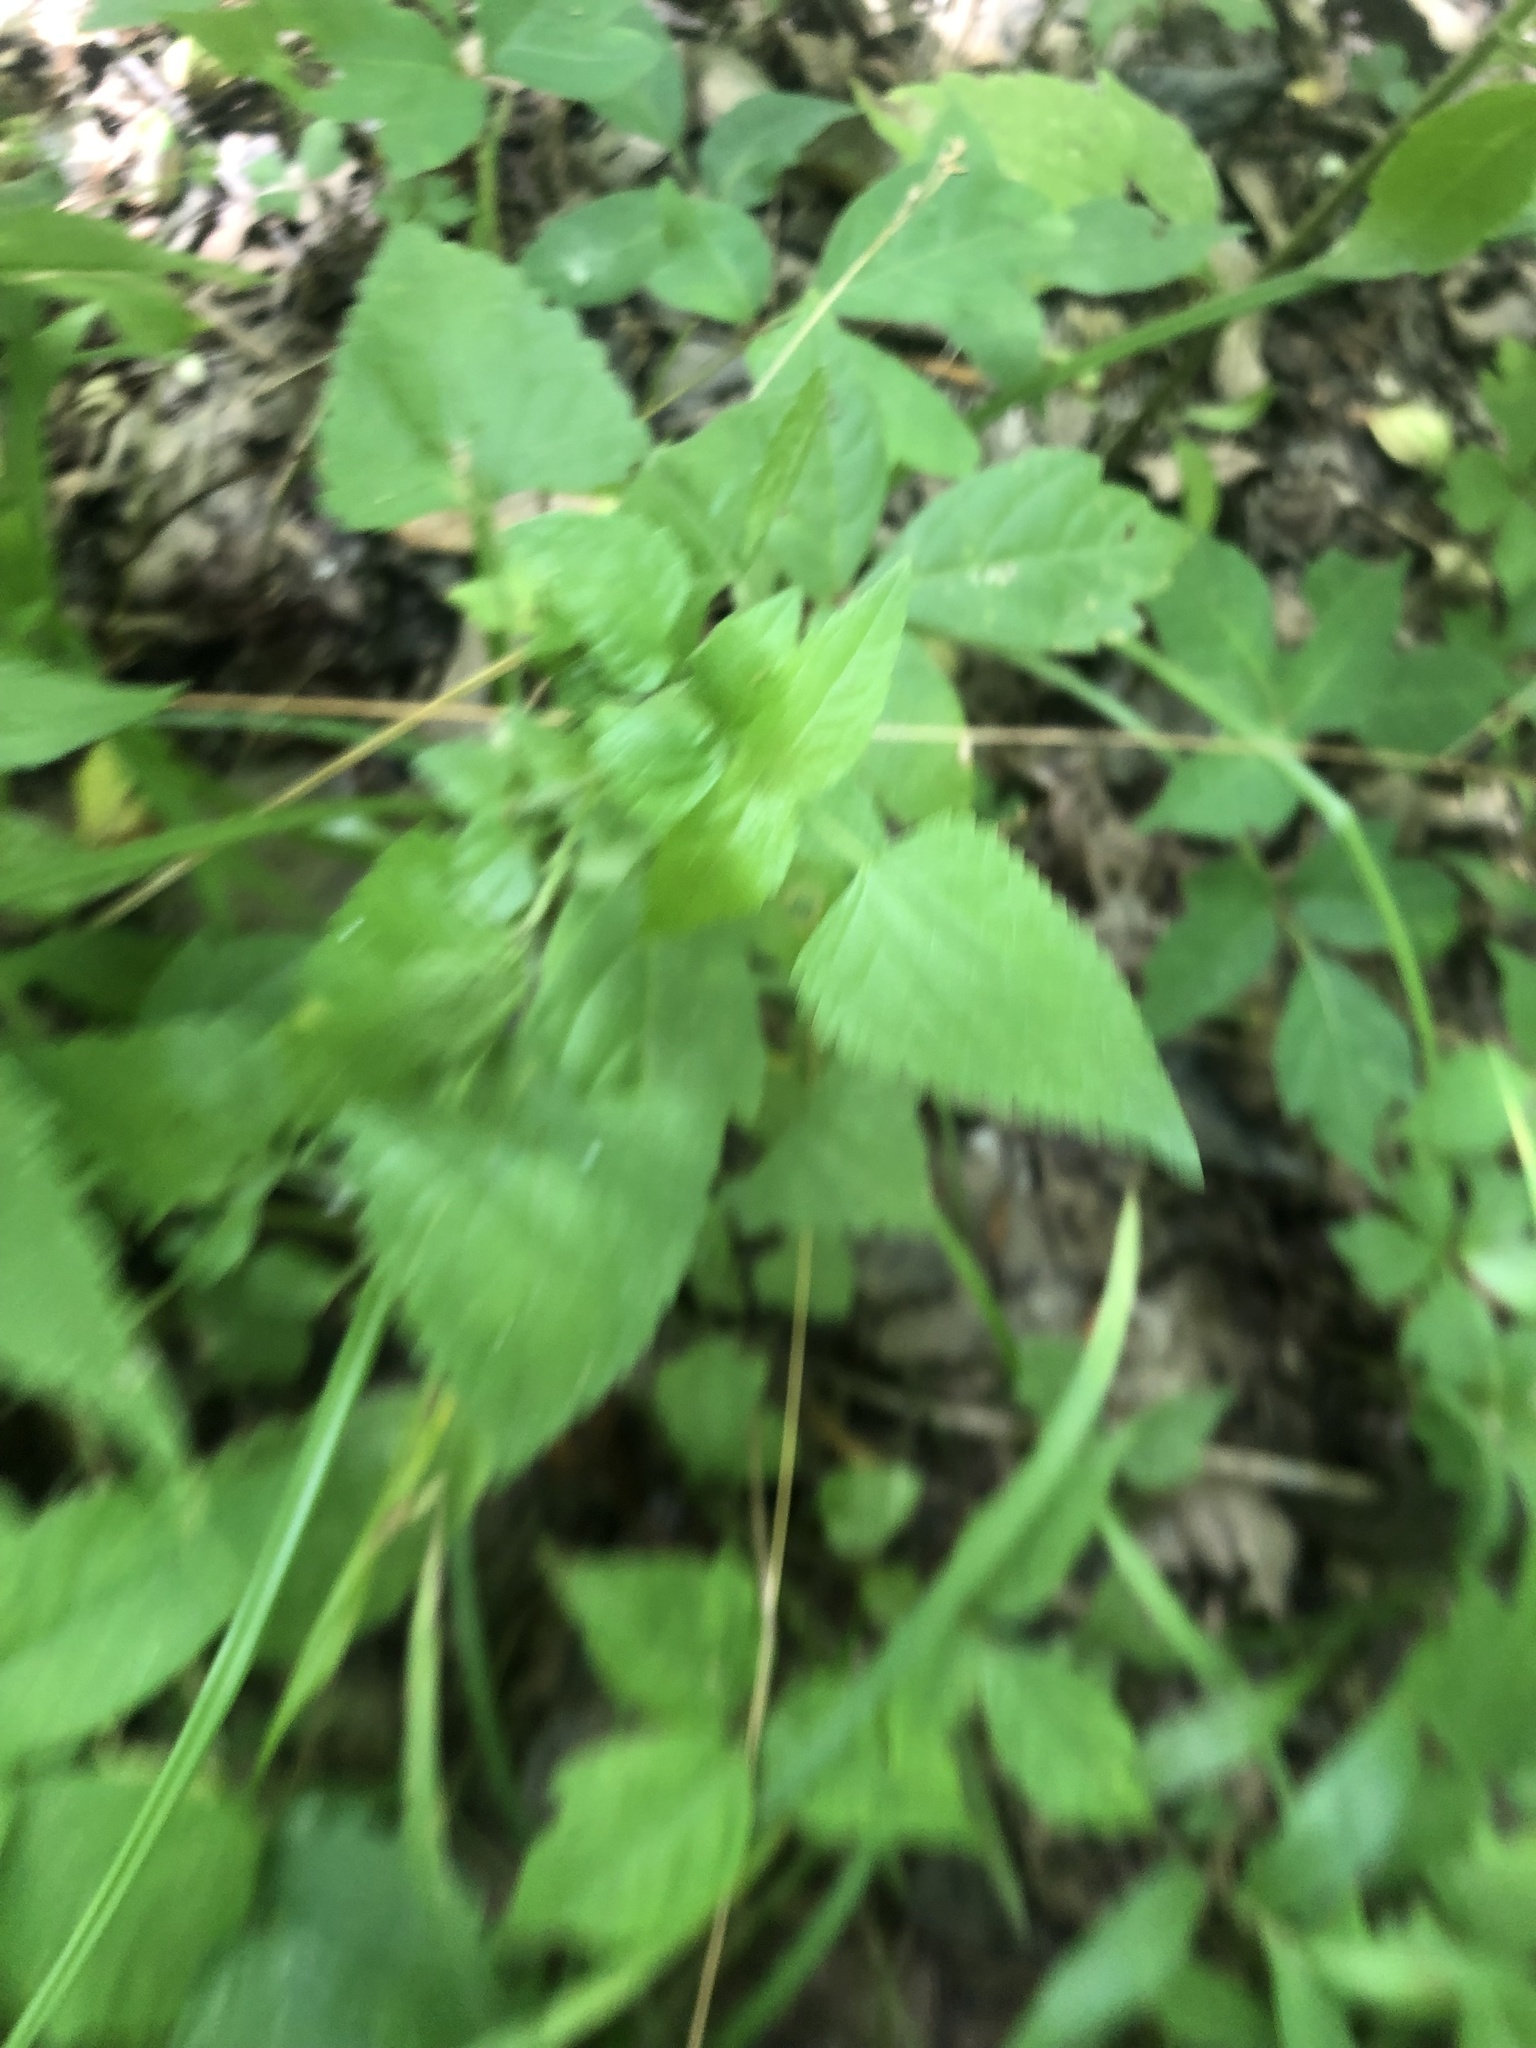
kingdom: Plantae
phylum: Tracheophyta
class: Magnoliopsida
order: Asterales
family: Asteraceae
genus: Fleischmannia
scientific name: Fleischmannia incarnata
